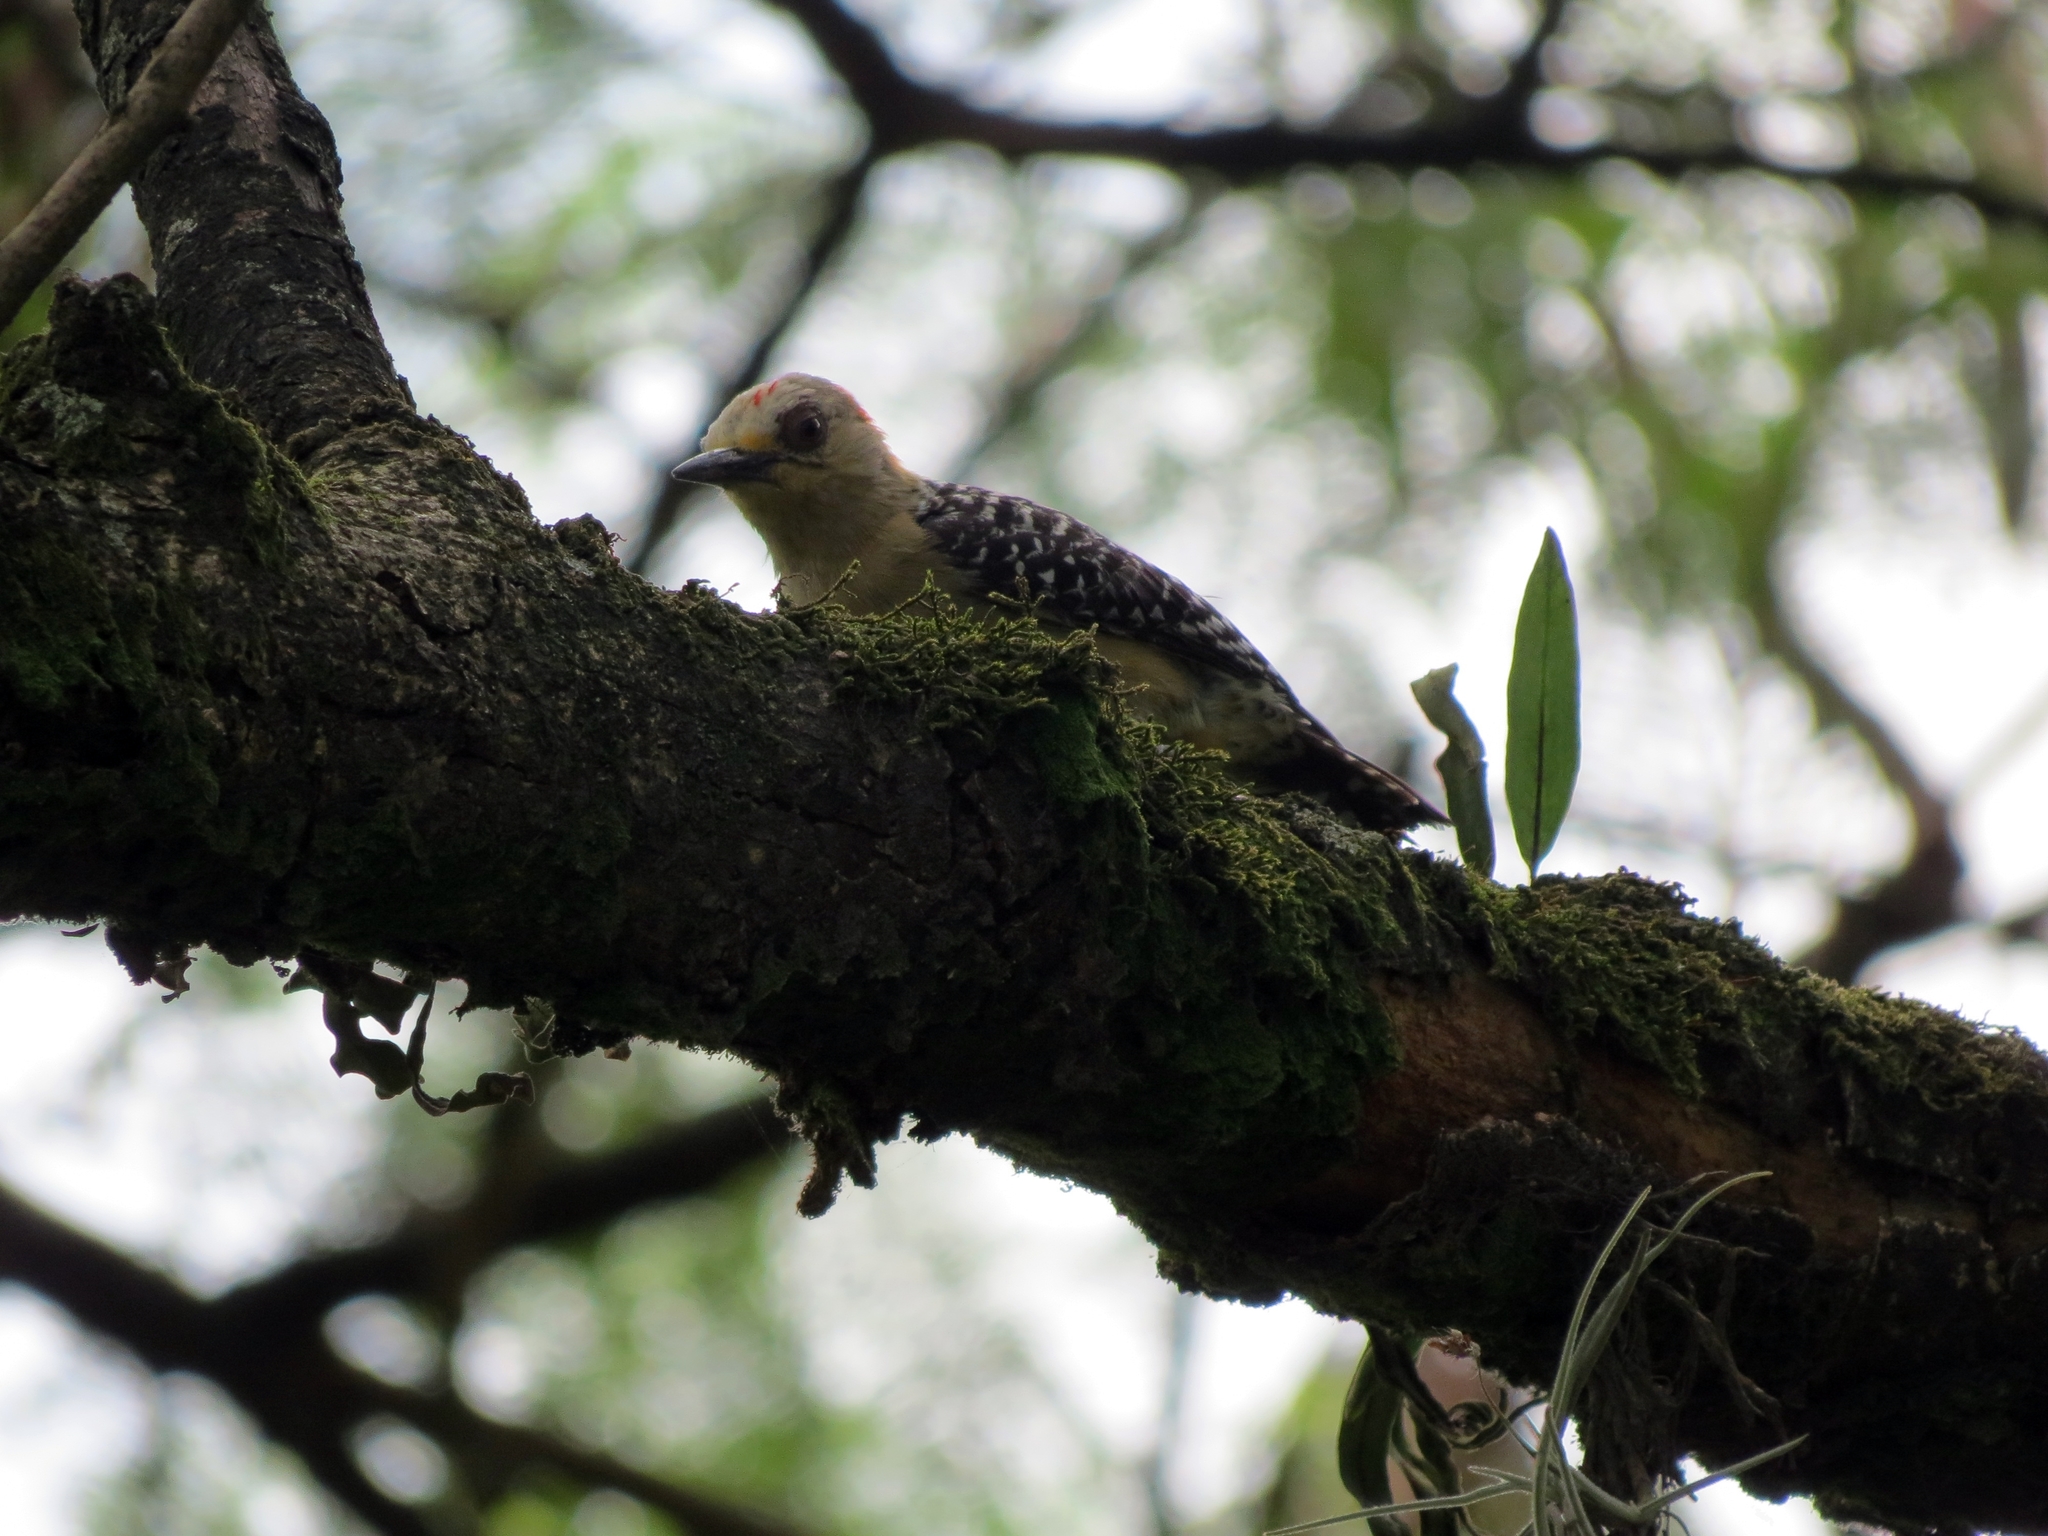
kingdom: Animalia
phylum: Chordata
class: Aves
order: Piciformes
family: Picidae
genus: Melanerpes
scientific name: Melanerpes rubricapillus
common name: Red-crowned woodpecker
